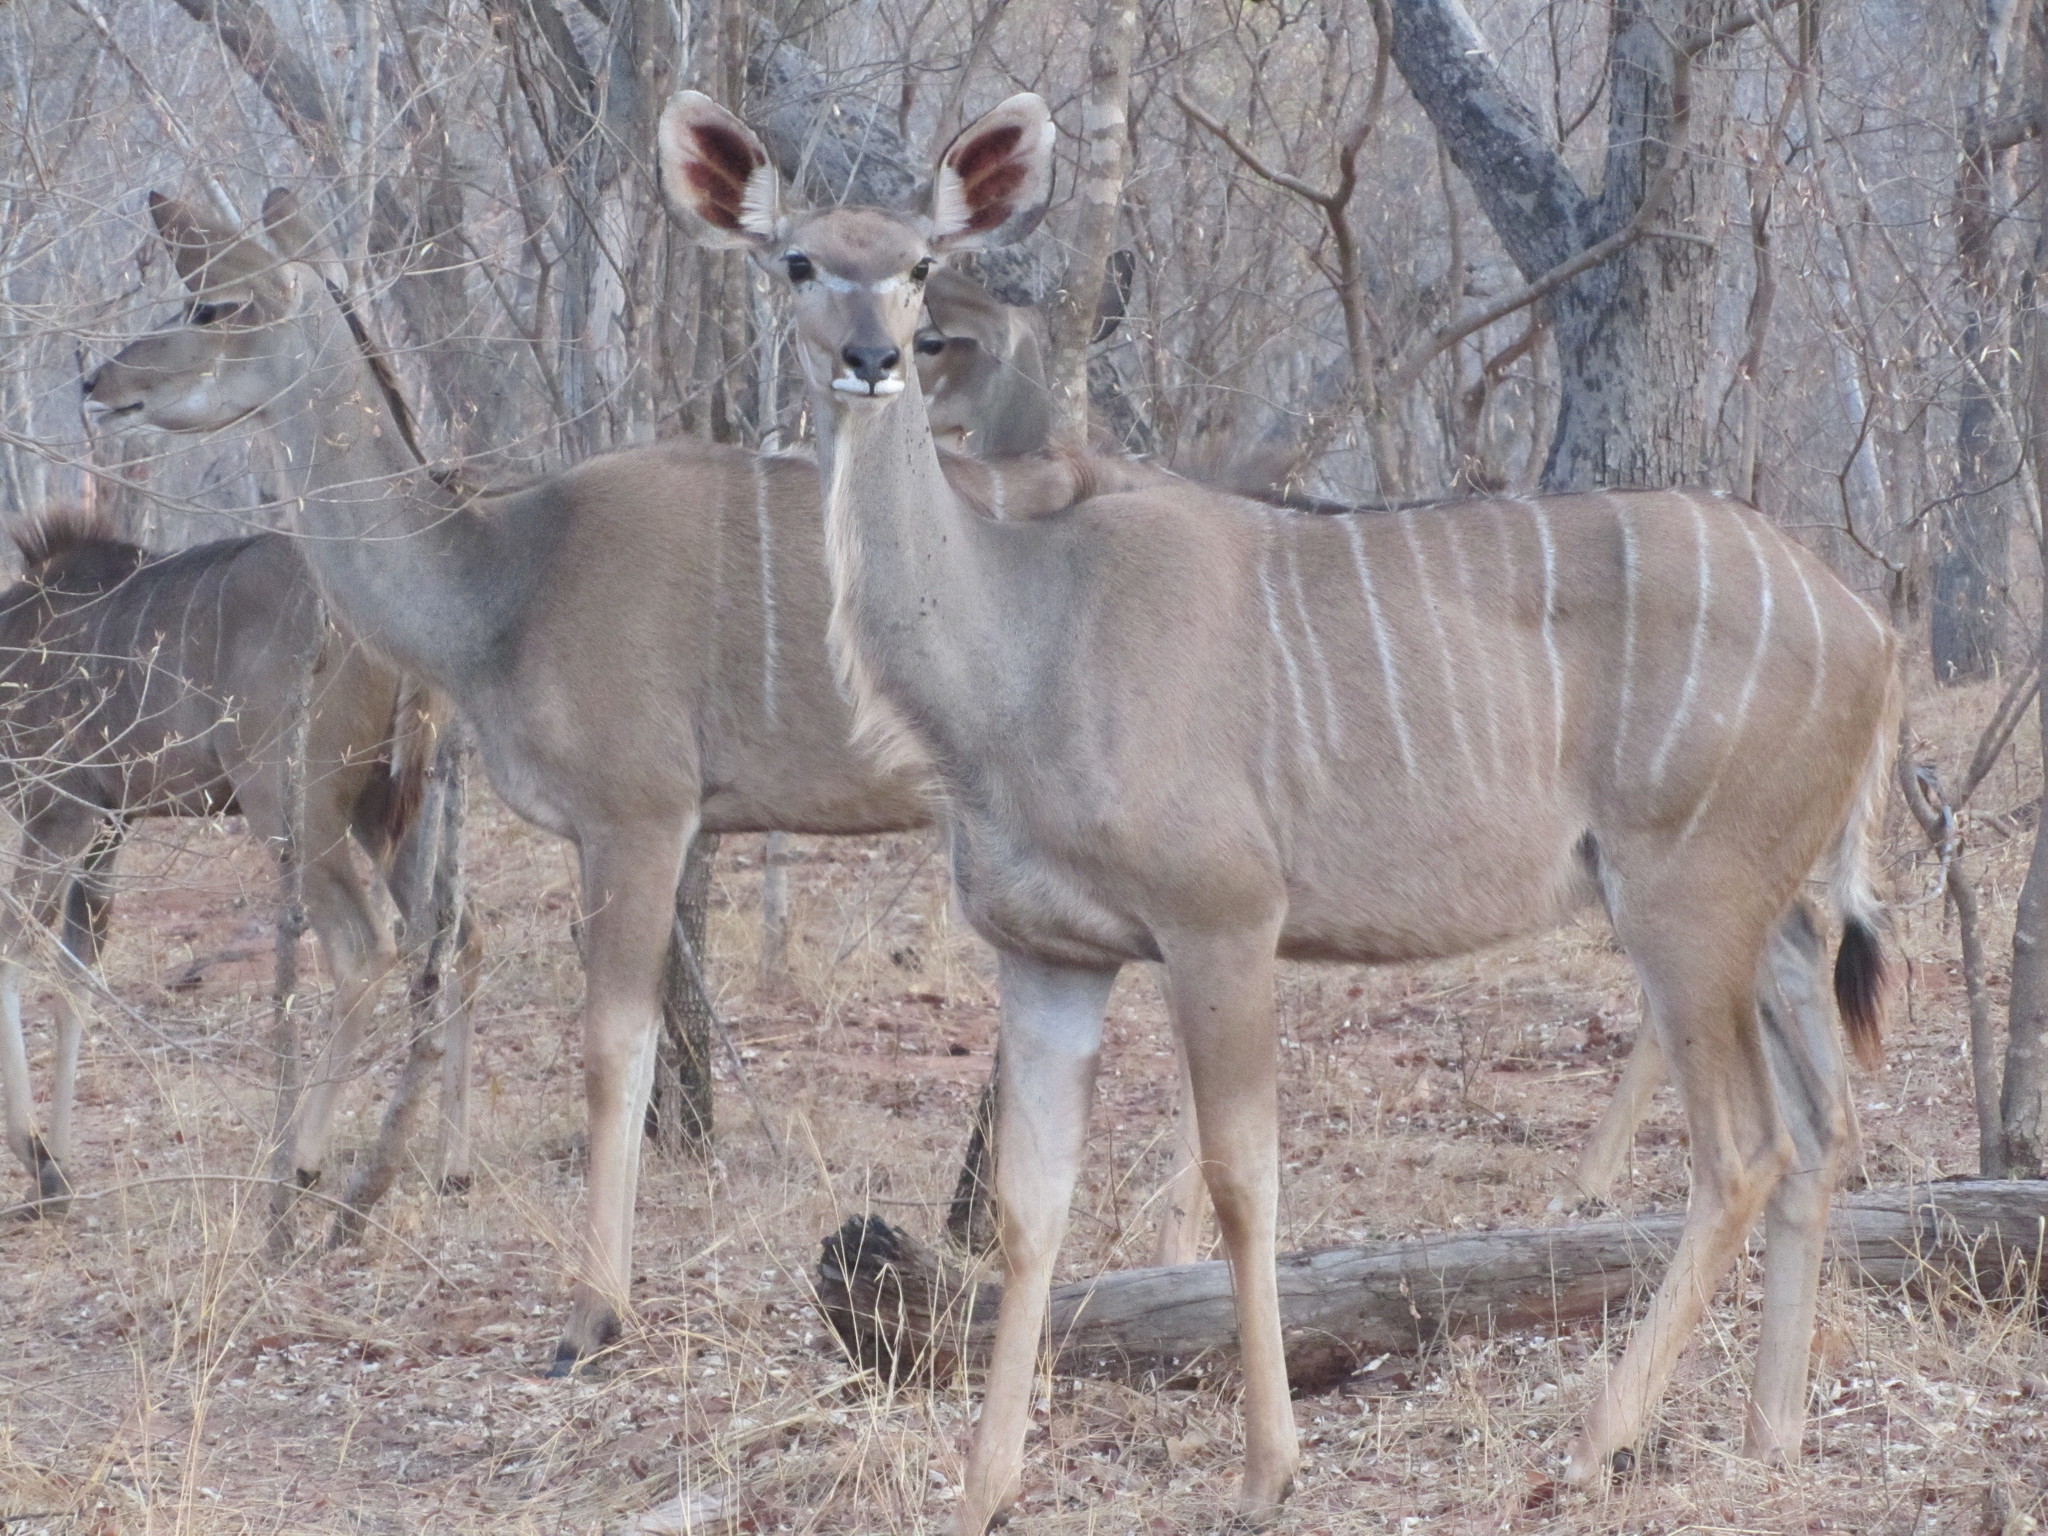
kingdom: Animalia
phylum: Chordata
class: Mammalia
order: Artiodactyla
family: Bovidae
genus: Tragelaphus
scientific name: Tragelaphus strepsiceros
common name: Greater kudu
